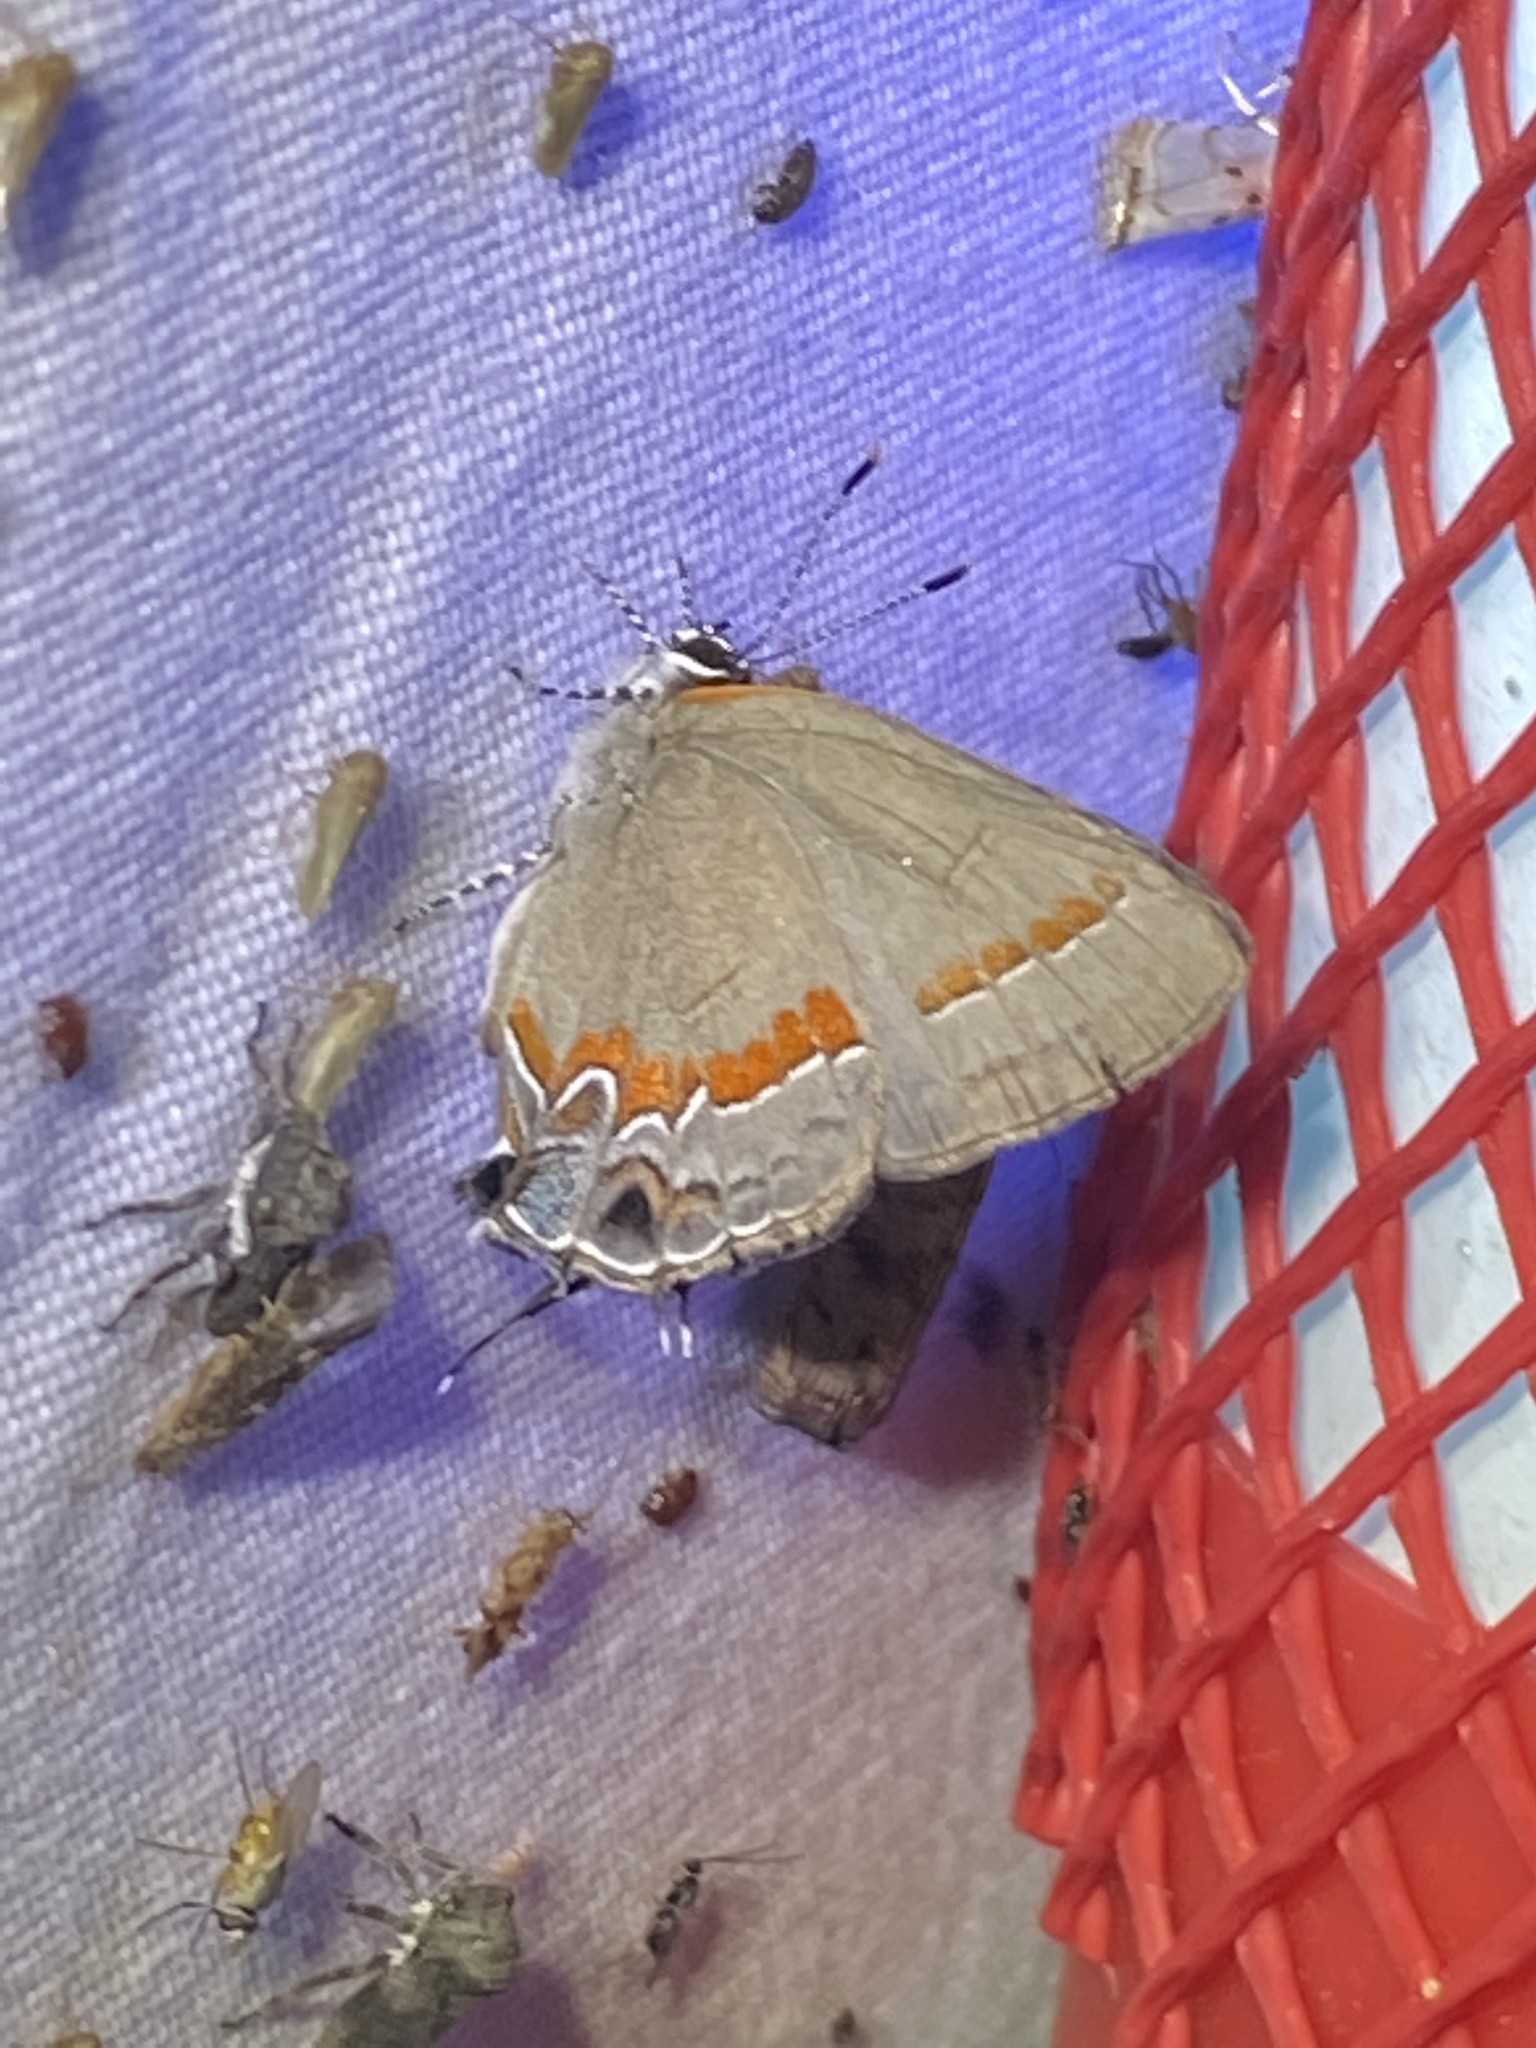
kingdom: Animalia
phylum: Arthropoda
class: Insecta
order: Lepidoptera
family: Lycaenidae
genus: Calycopis
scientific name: Calycopis cecrops
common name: Red-banded hairstreak
